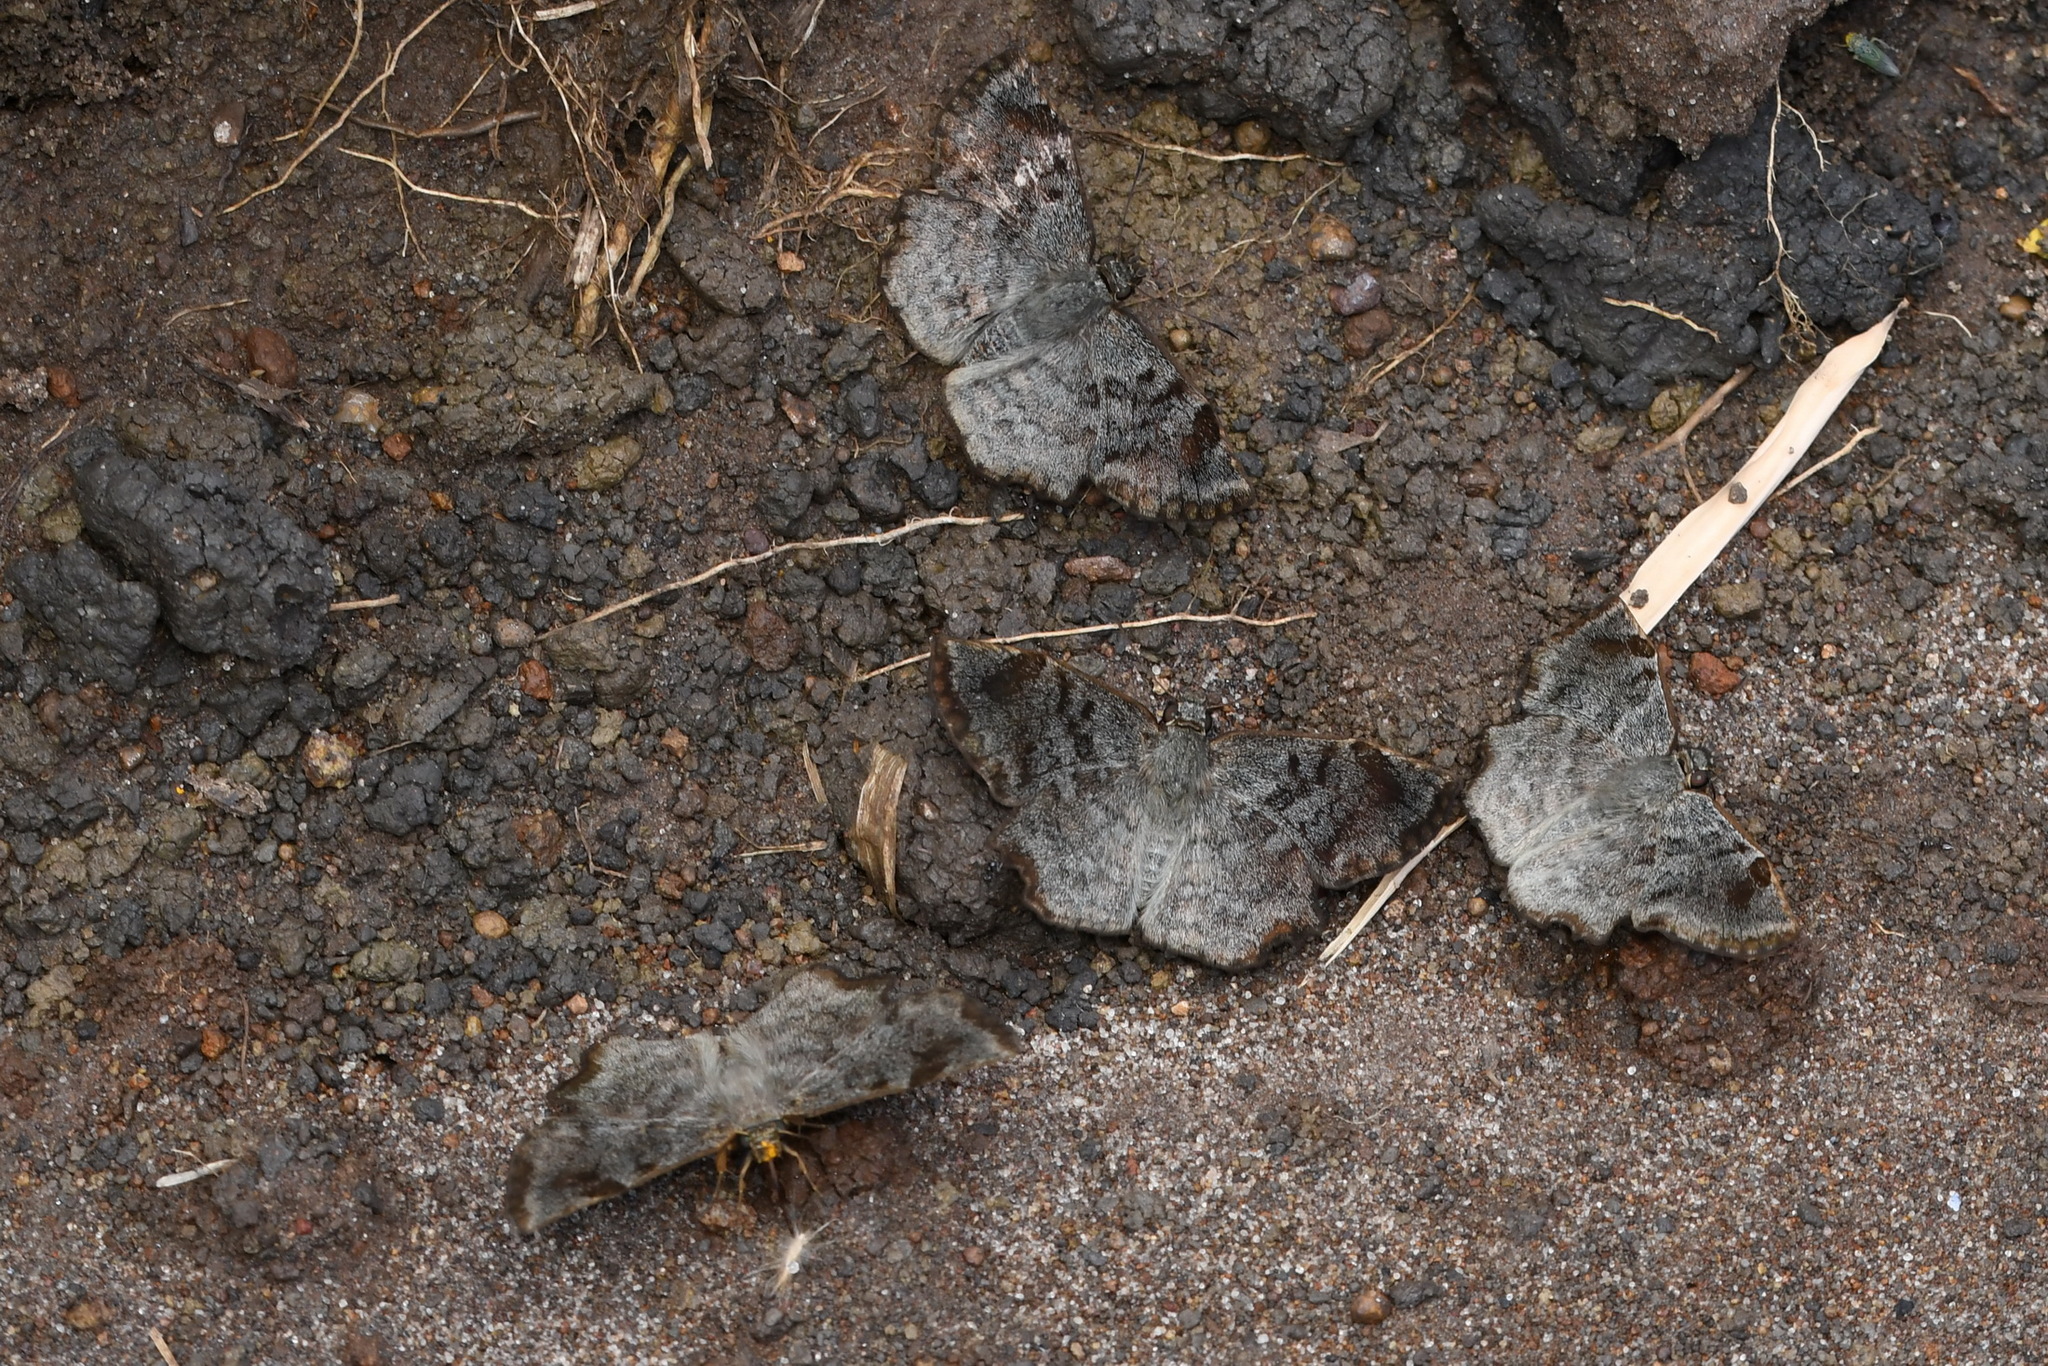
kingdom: Animalia
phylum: Arthropoda
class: Insecta
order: Lepidoptera
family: Hesperiidae
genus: Antigonus
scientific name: Antigonus erosus
